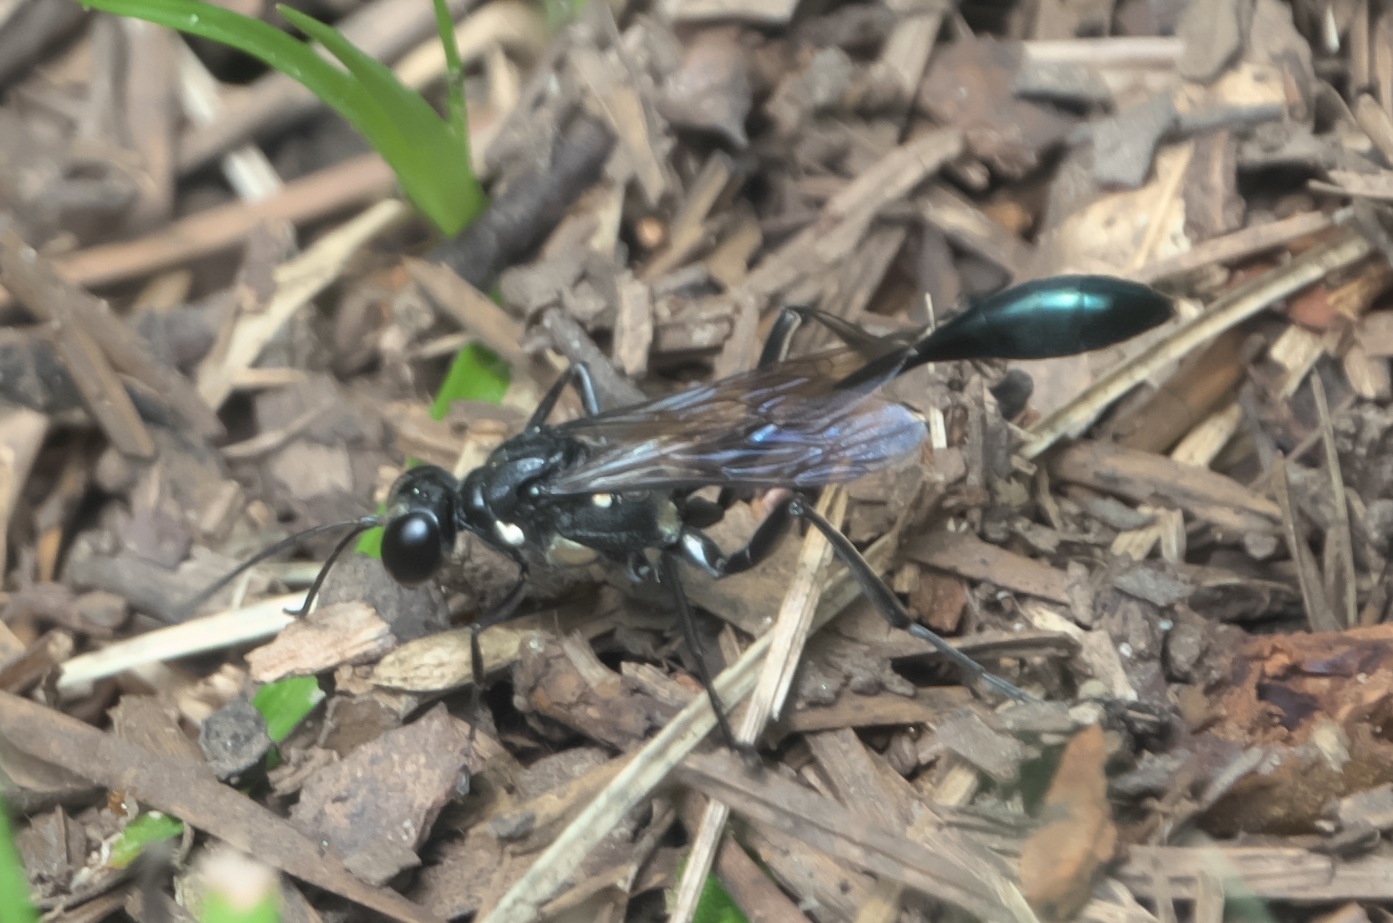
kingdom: Animalia
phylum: Arthropoda
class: Insecta
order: Hymenoptera
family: Sphecidae
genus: Eremnophila
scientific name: Eremnophila aureonotata
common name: Gold-marked thread-waisted wasp
